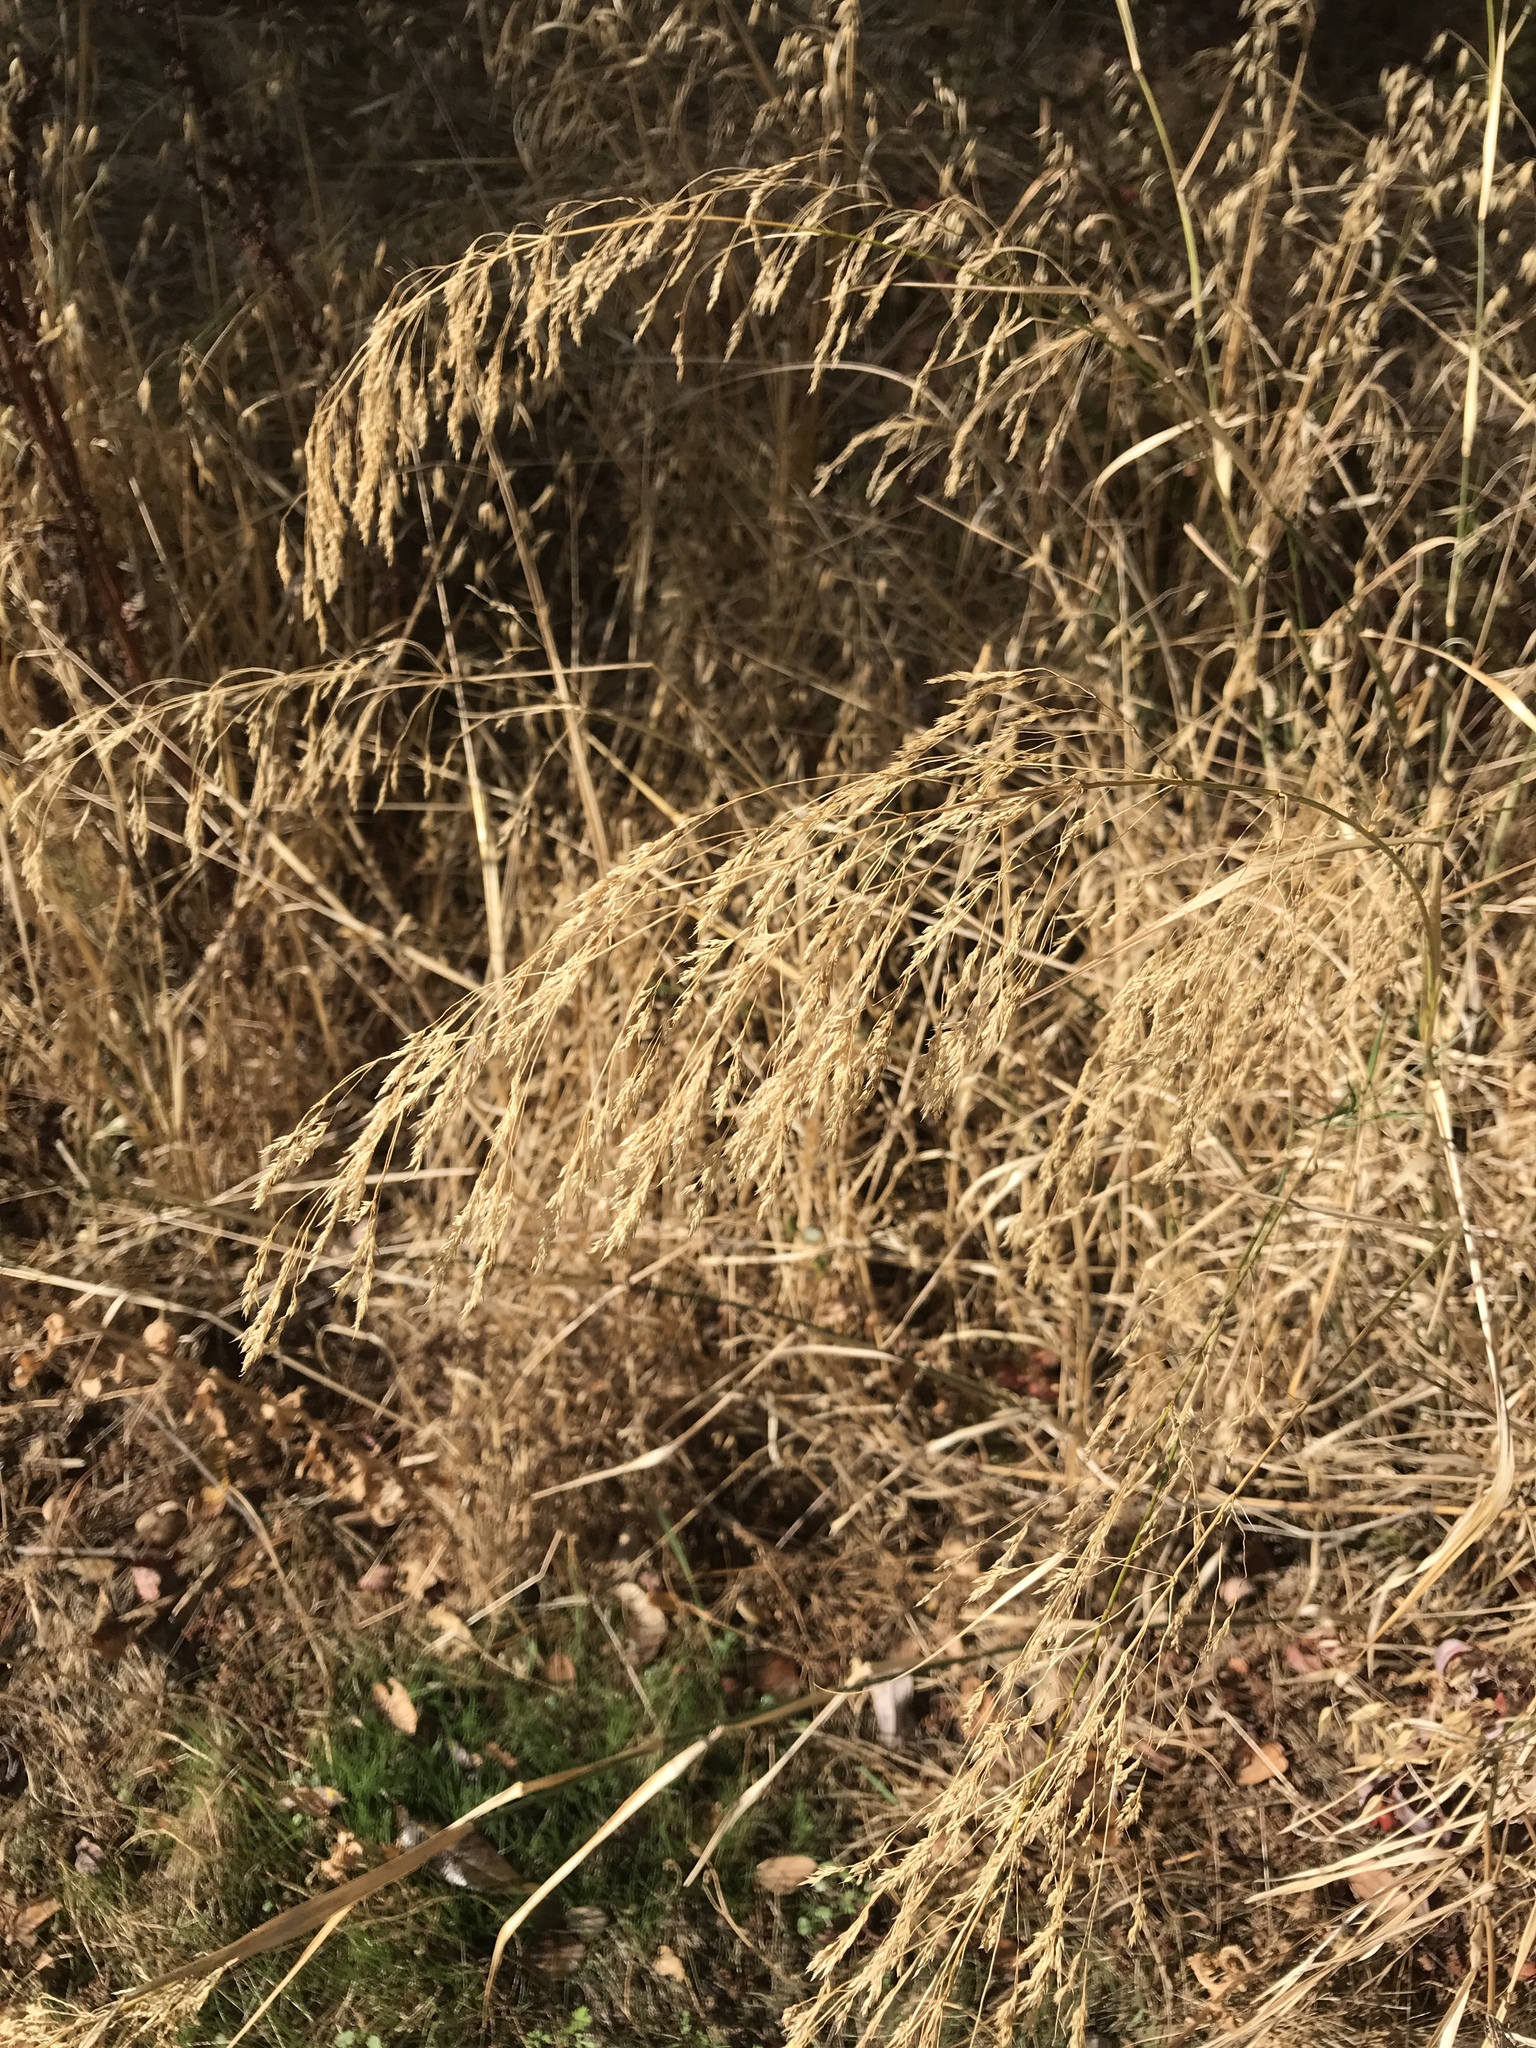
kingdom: Plantae
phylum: Tracheophyta
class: Liliopsida
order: Poales
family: Poaceae
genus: Oloptum
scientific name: Oloptum miliaceum
